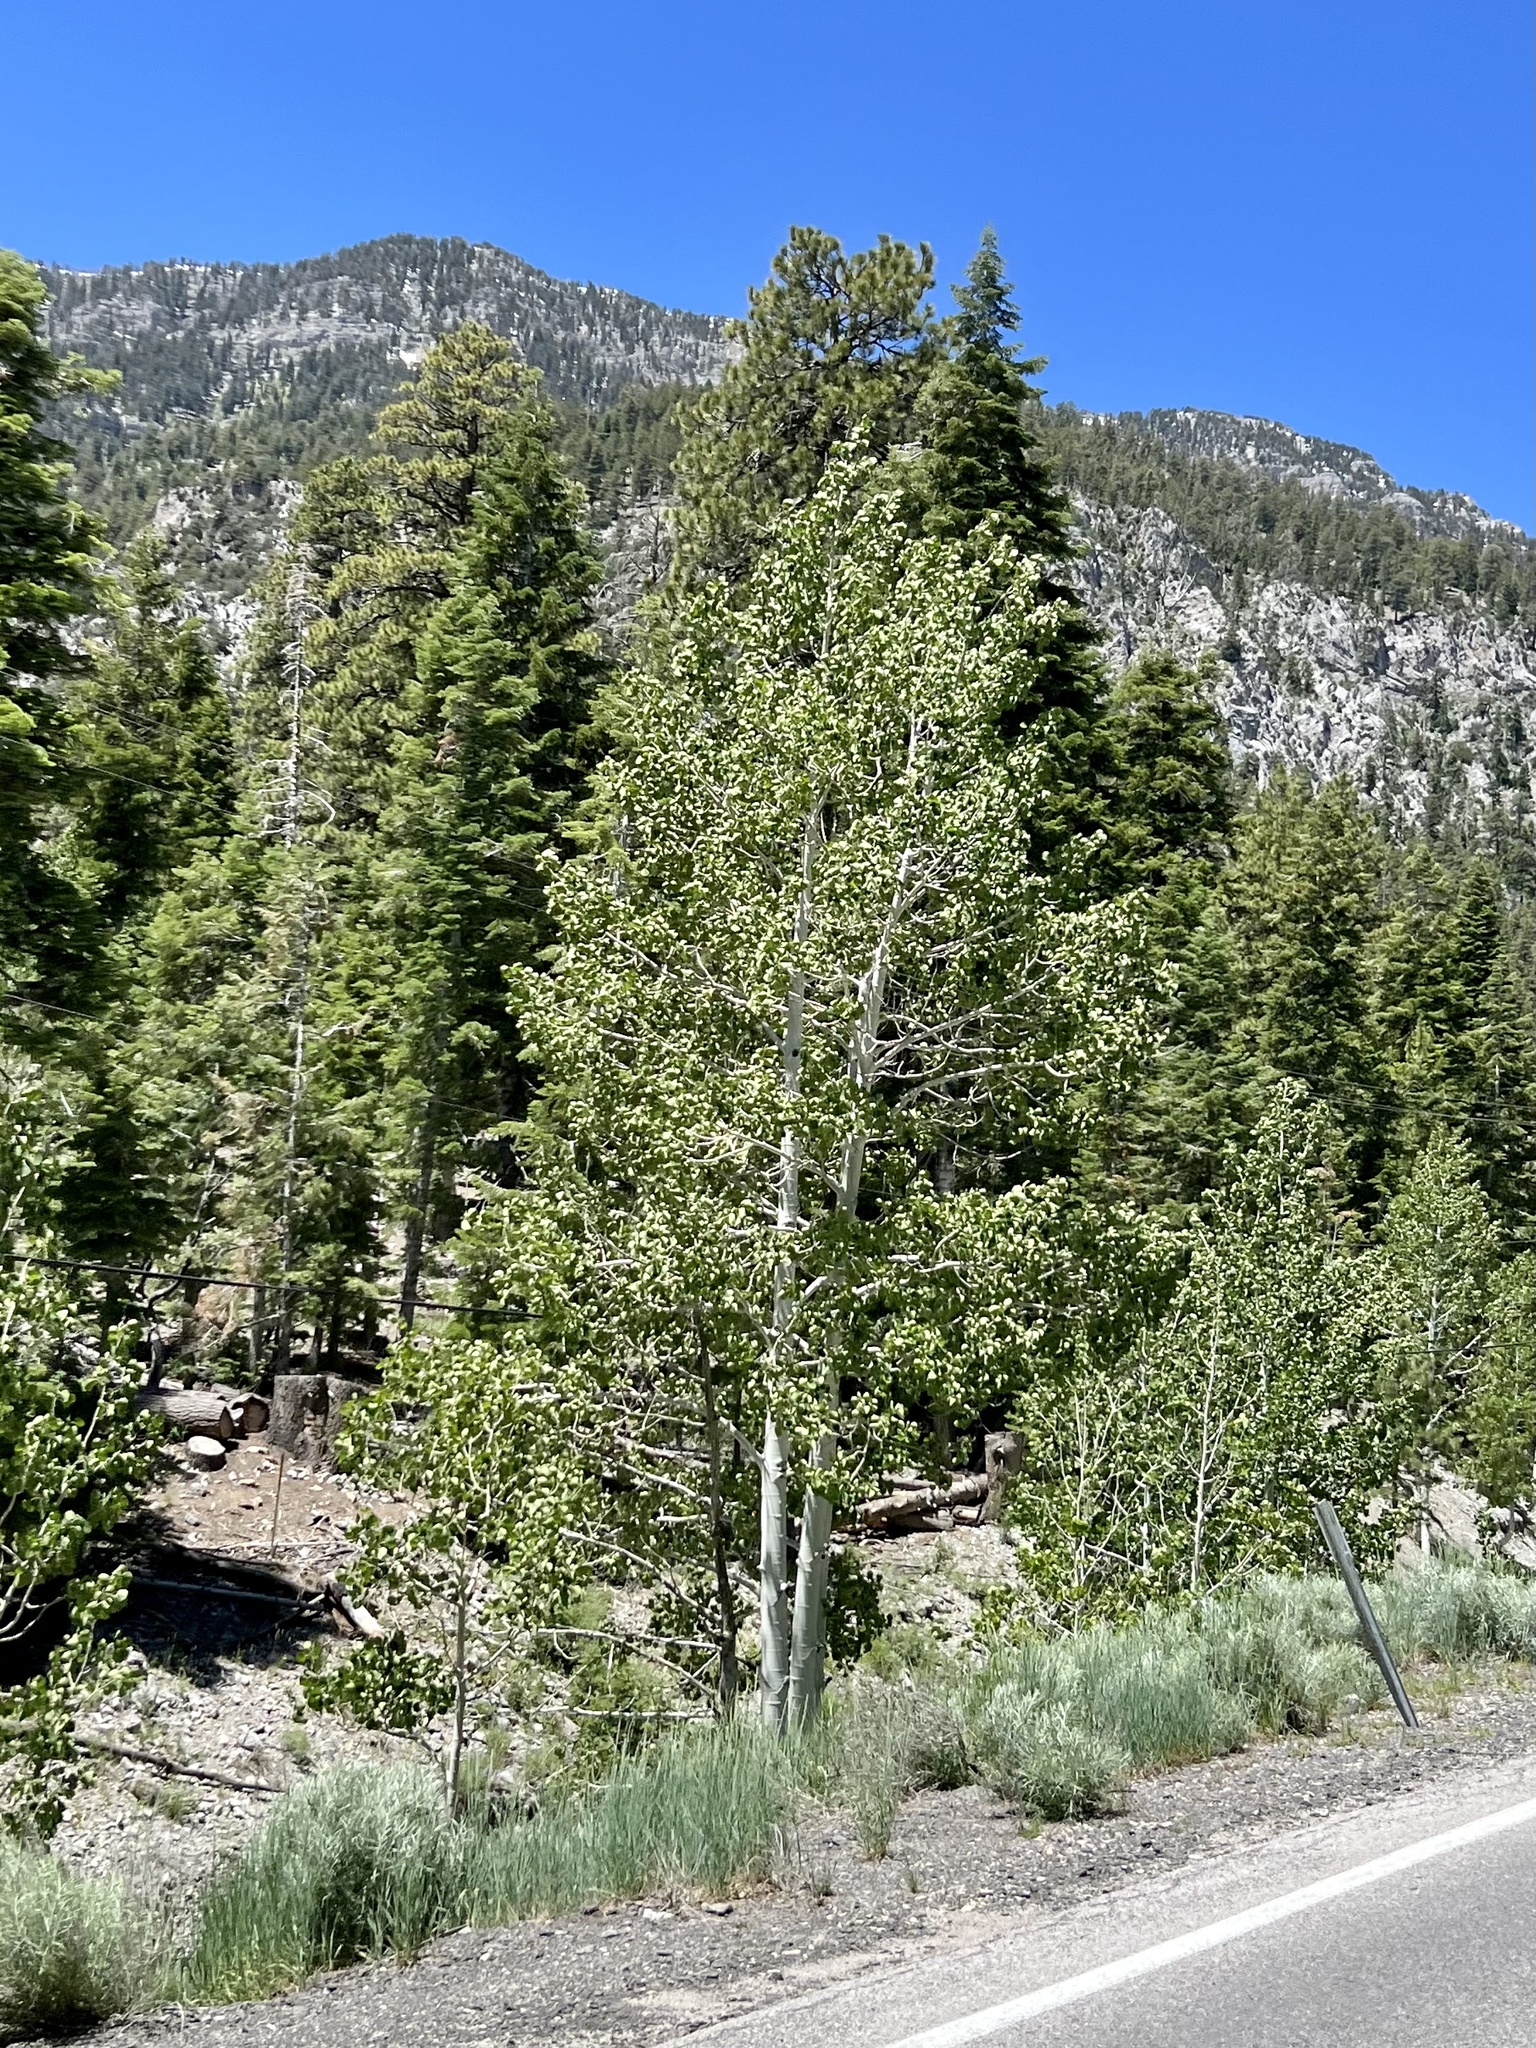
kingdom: Plantae
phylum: Tracheophyta
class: Magnoliopsida
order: Malpighiales
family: Salicaceae
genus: Populus
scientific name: Populus tremuloides
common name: Quaking aspen
